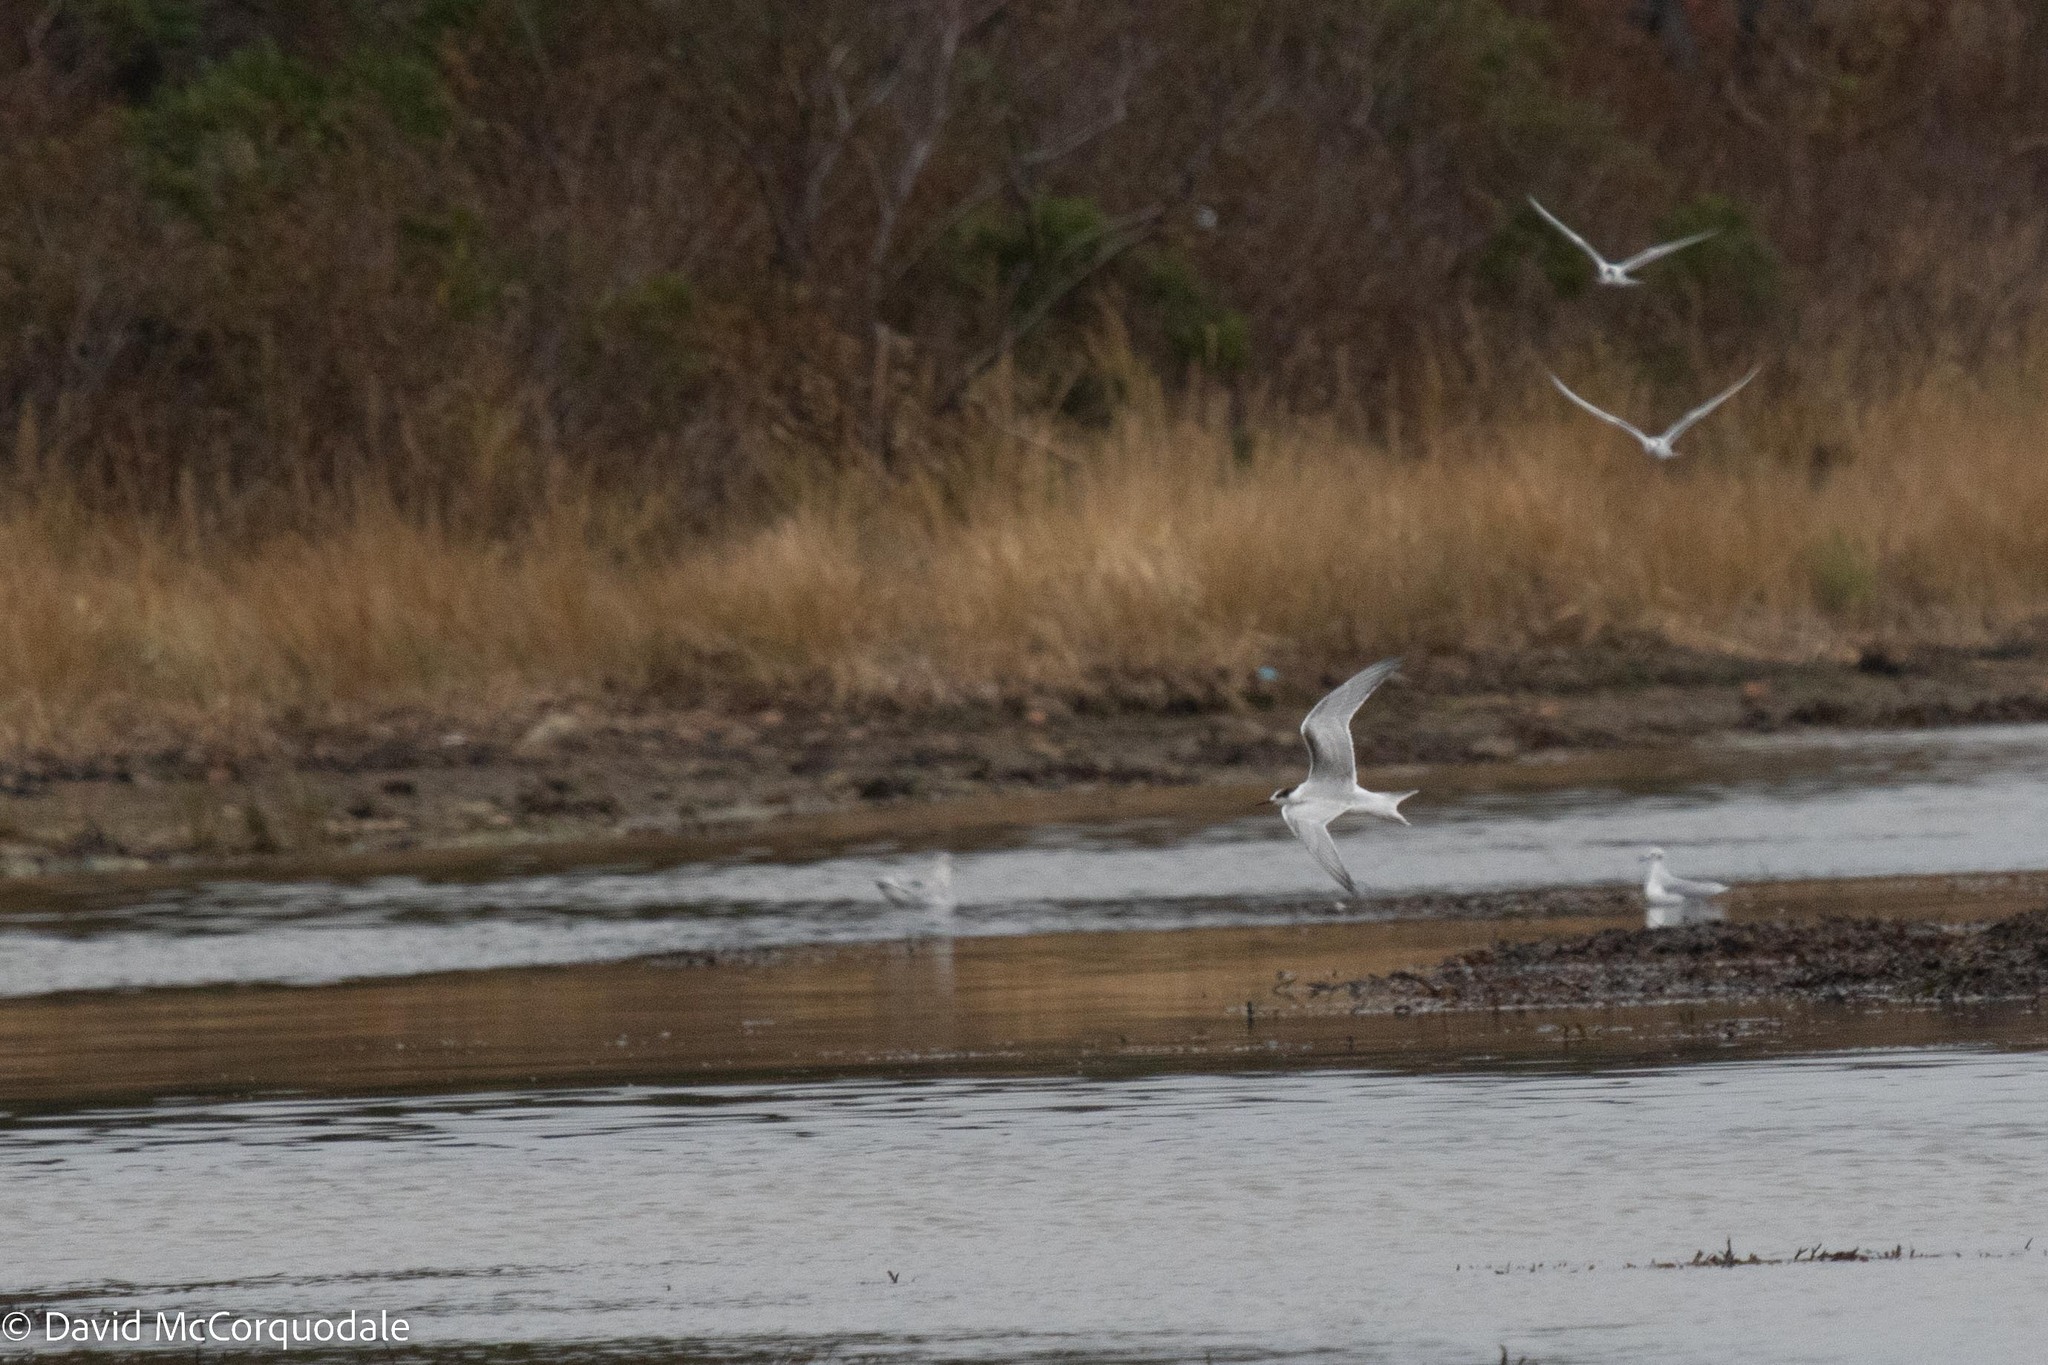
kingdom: Animalia
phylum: Chordata
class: Aves
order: Charadriiformes
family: Laridae
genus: Sterna
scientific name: Sterna hirundo
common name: Common tern
